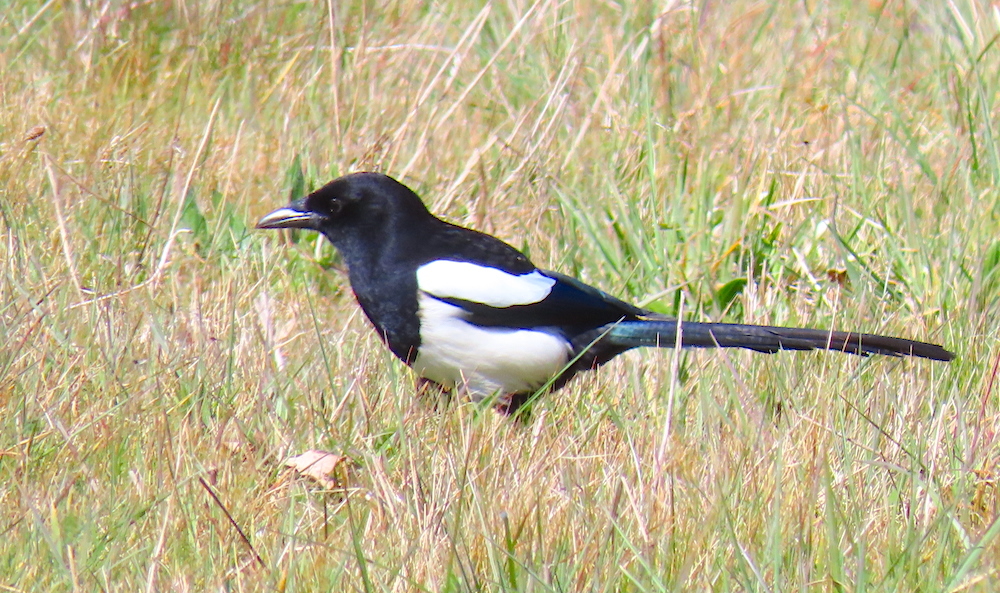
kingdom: Animalia
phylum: Chordata
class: Aves
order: Passeriformes
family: Corvidae
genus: Pica
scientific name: Pica pica
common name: Eurasian magpie
